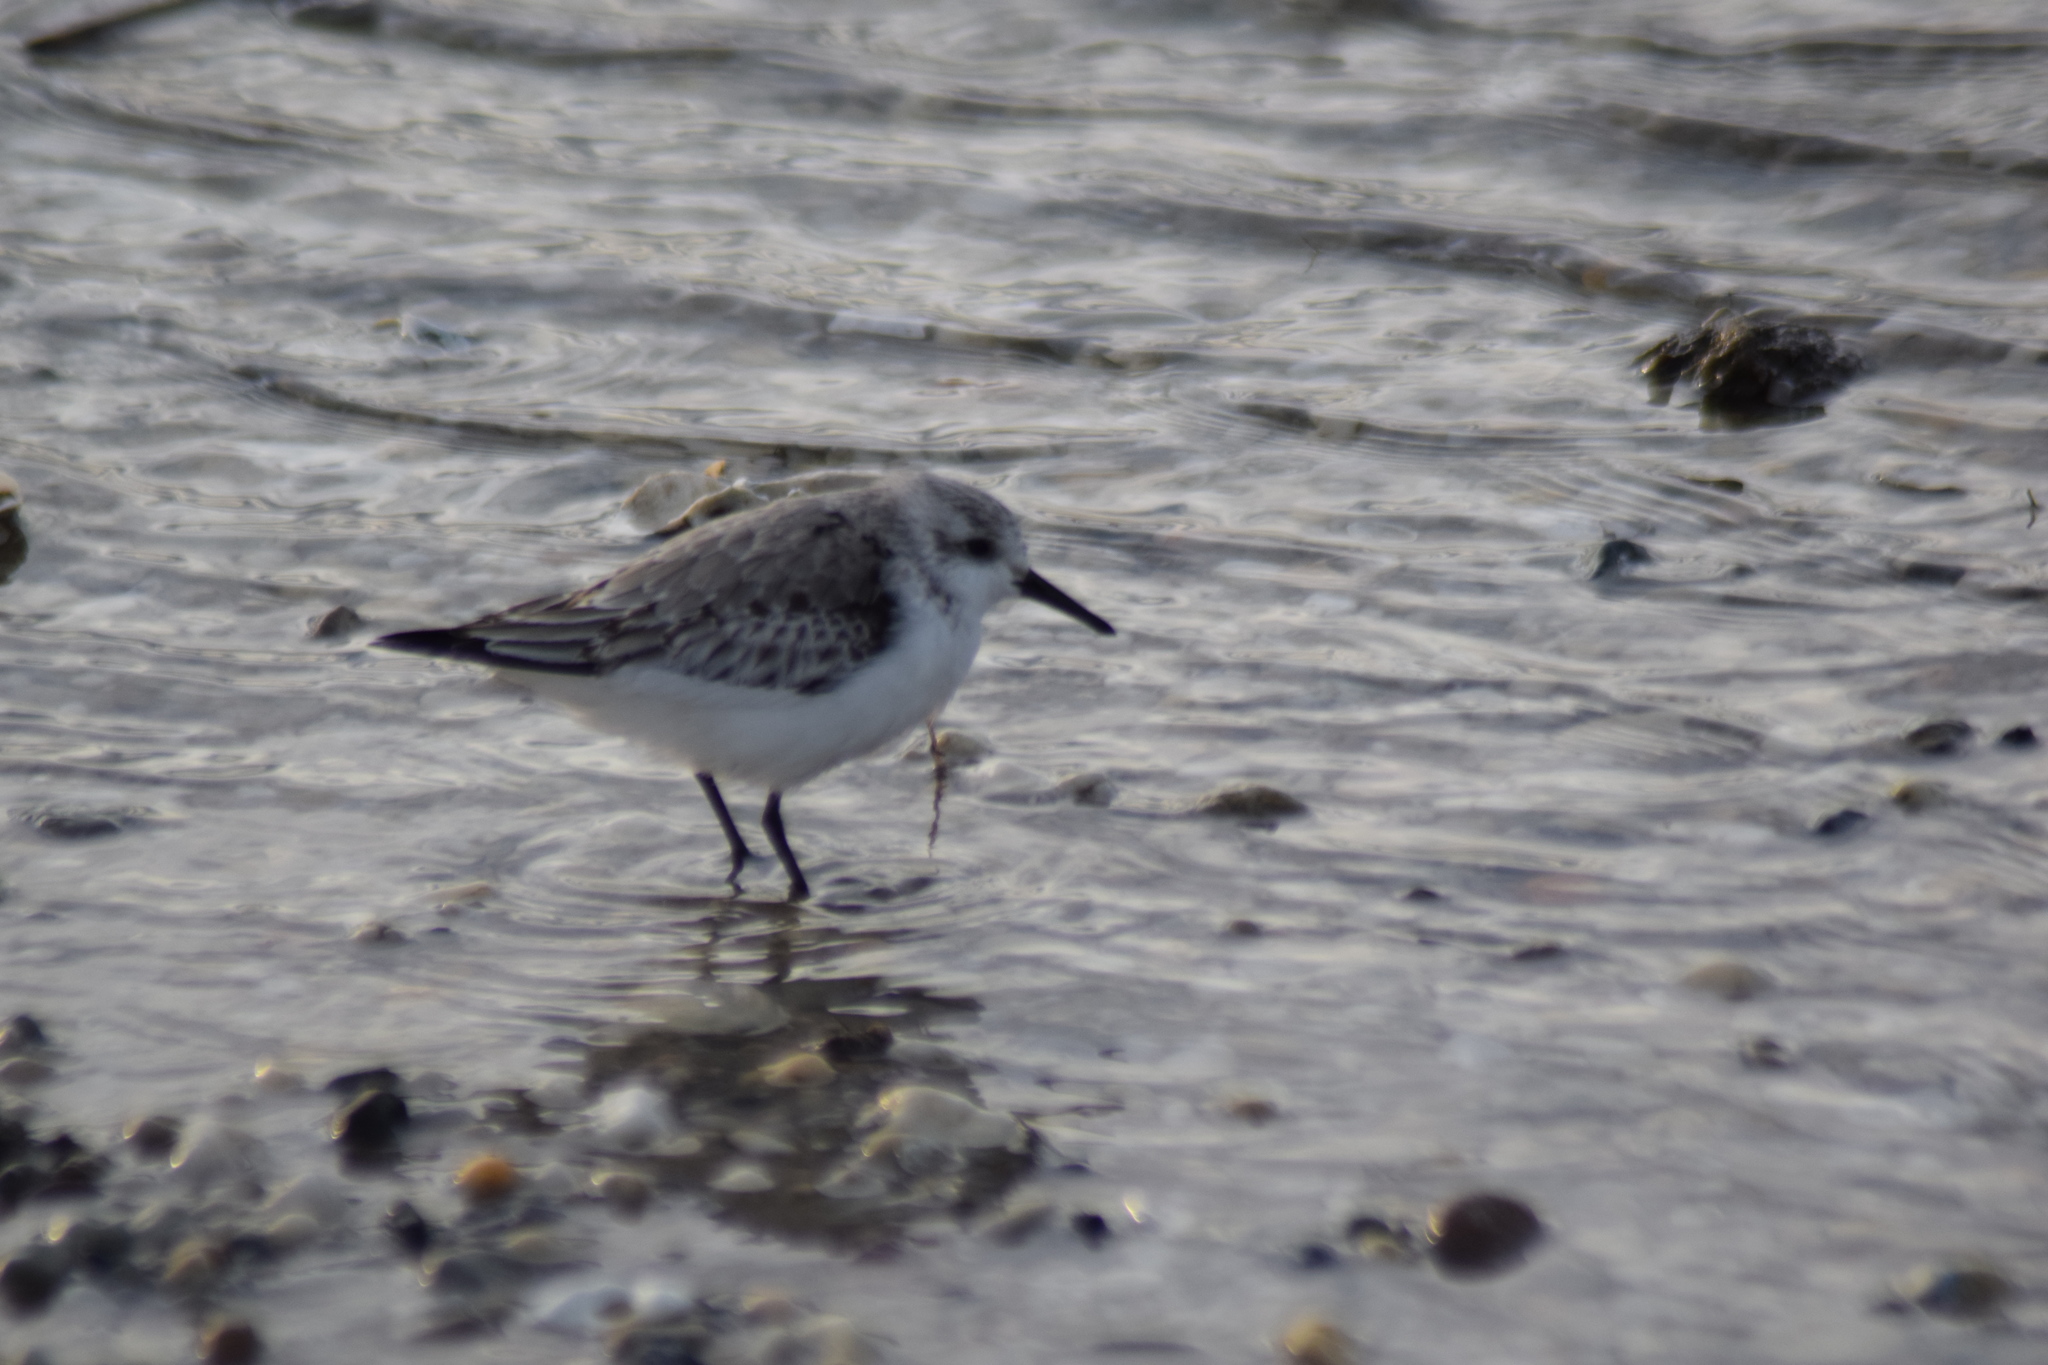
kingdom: Animalia
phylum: Chordata
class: Aves
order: Charadriiformes
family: Scolopacidae
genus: Calidris
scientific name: Calidris alba
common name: Sanderling
